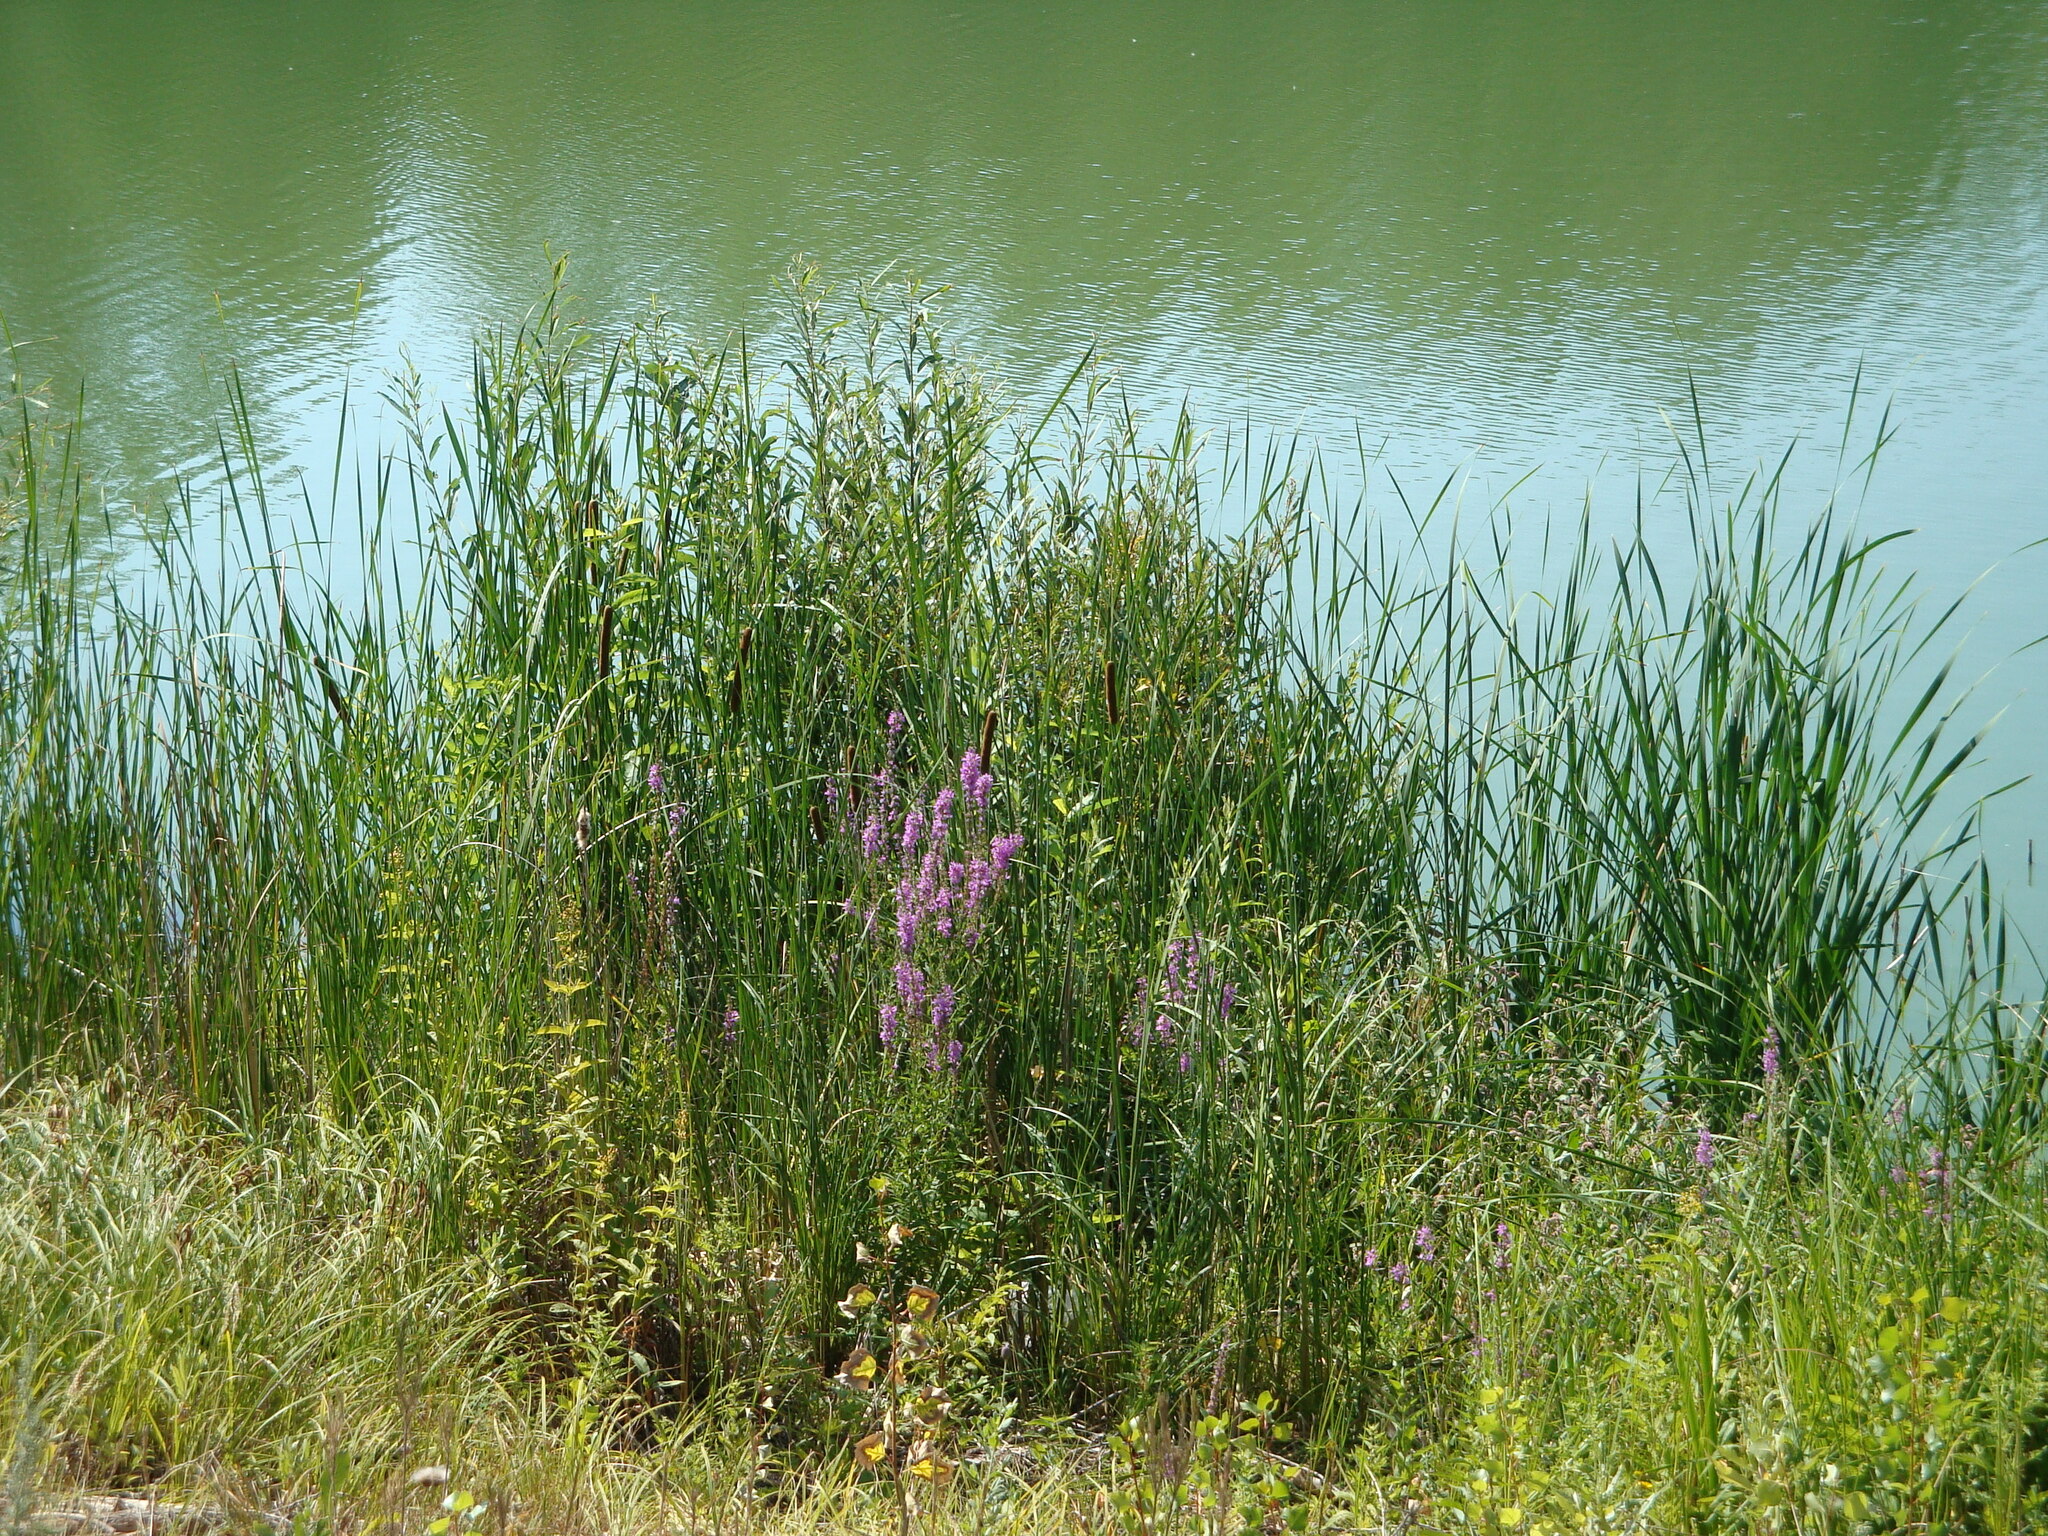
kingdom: Plantae
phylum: Tracheophyta
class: Magnoliopsida
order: Myrtales
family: Lythraceae
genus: Lythrum
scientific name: Lythrum salicaria
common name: Purple loosestrife
